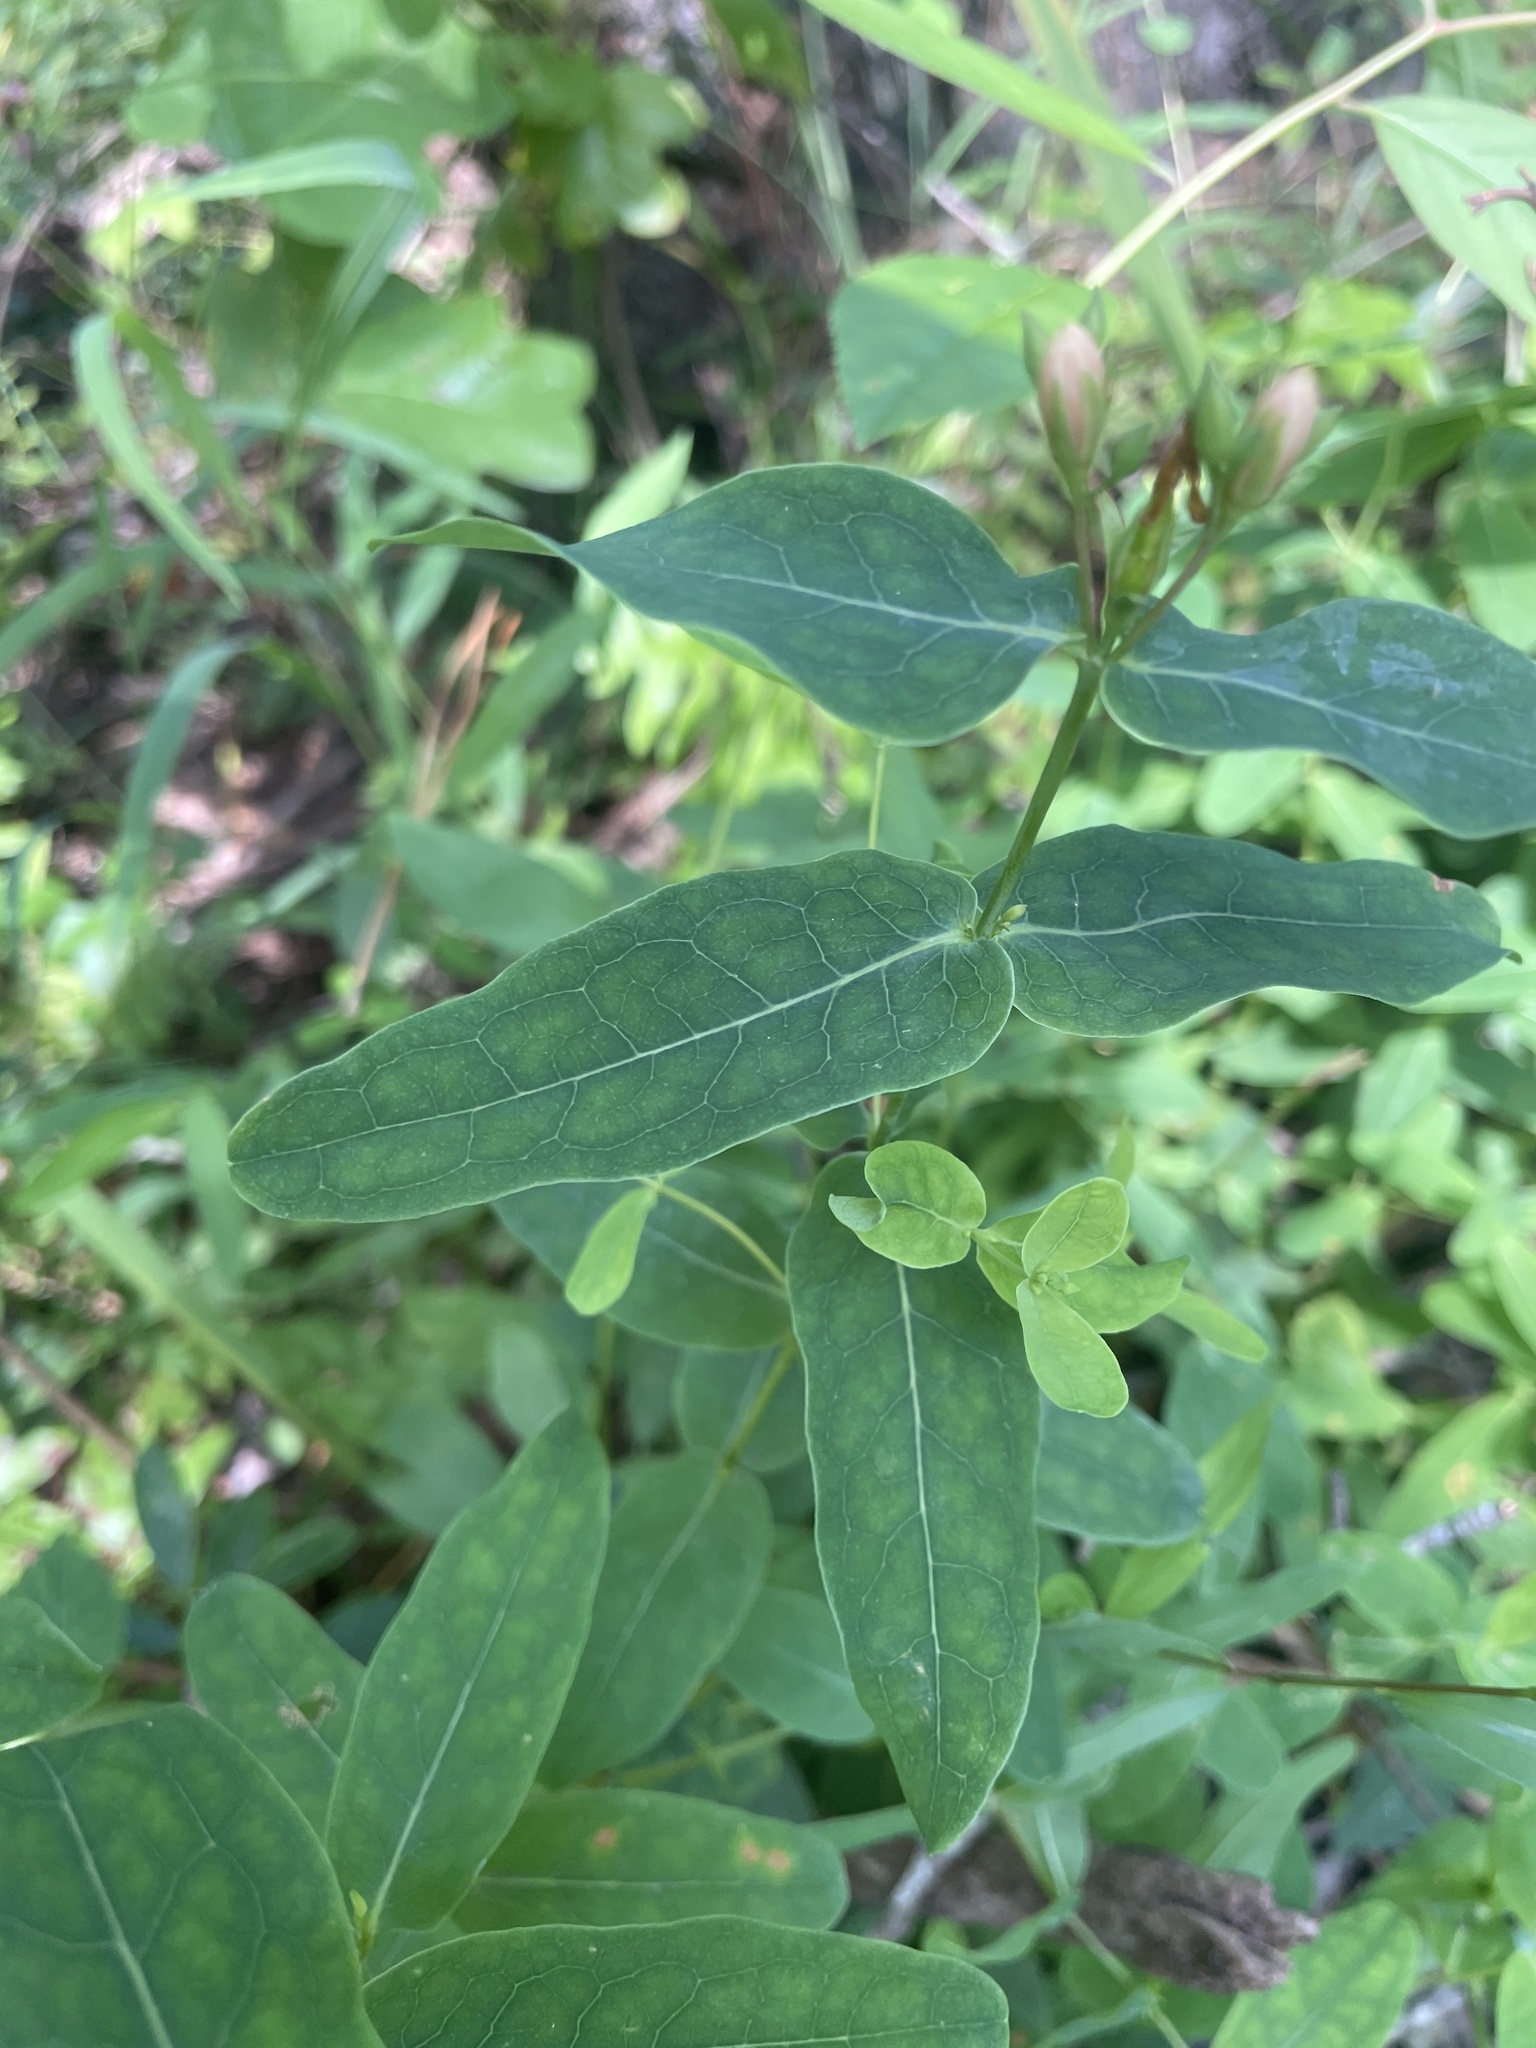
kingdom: Plantae
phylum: Tracheophyta
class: Magnoliopsida
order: Malpighiales
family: Hypericaceae
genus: Triadenum
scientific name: Triadenum virginicum
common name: Marsh st. john's-wort
